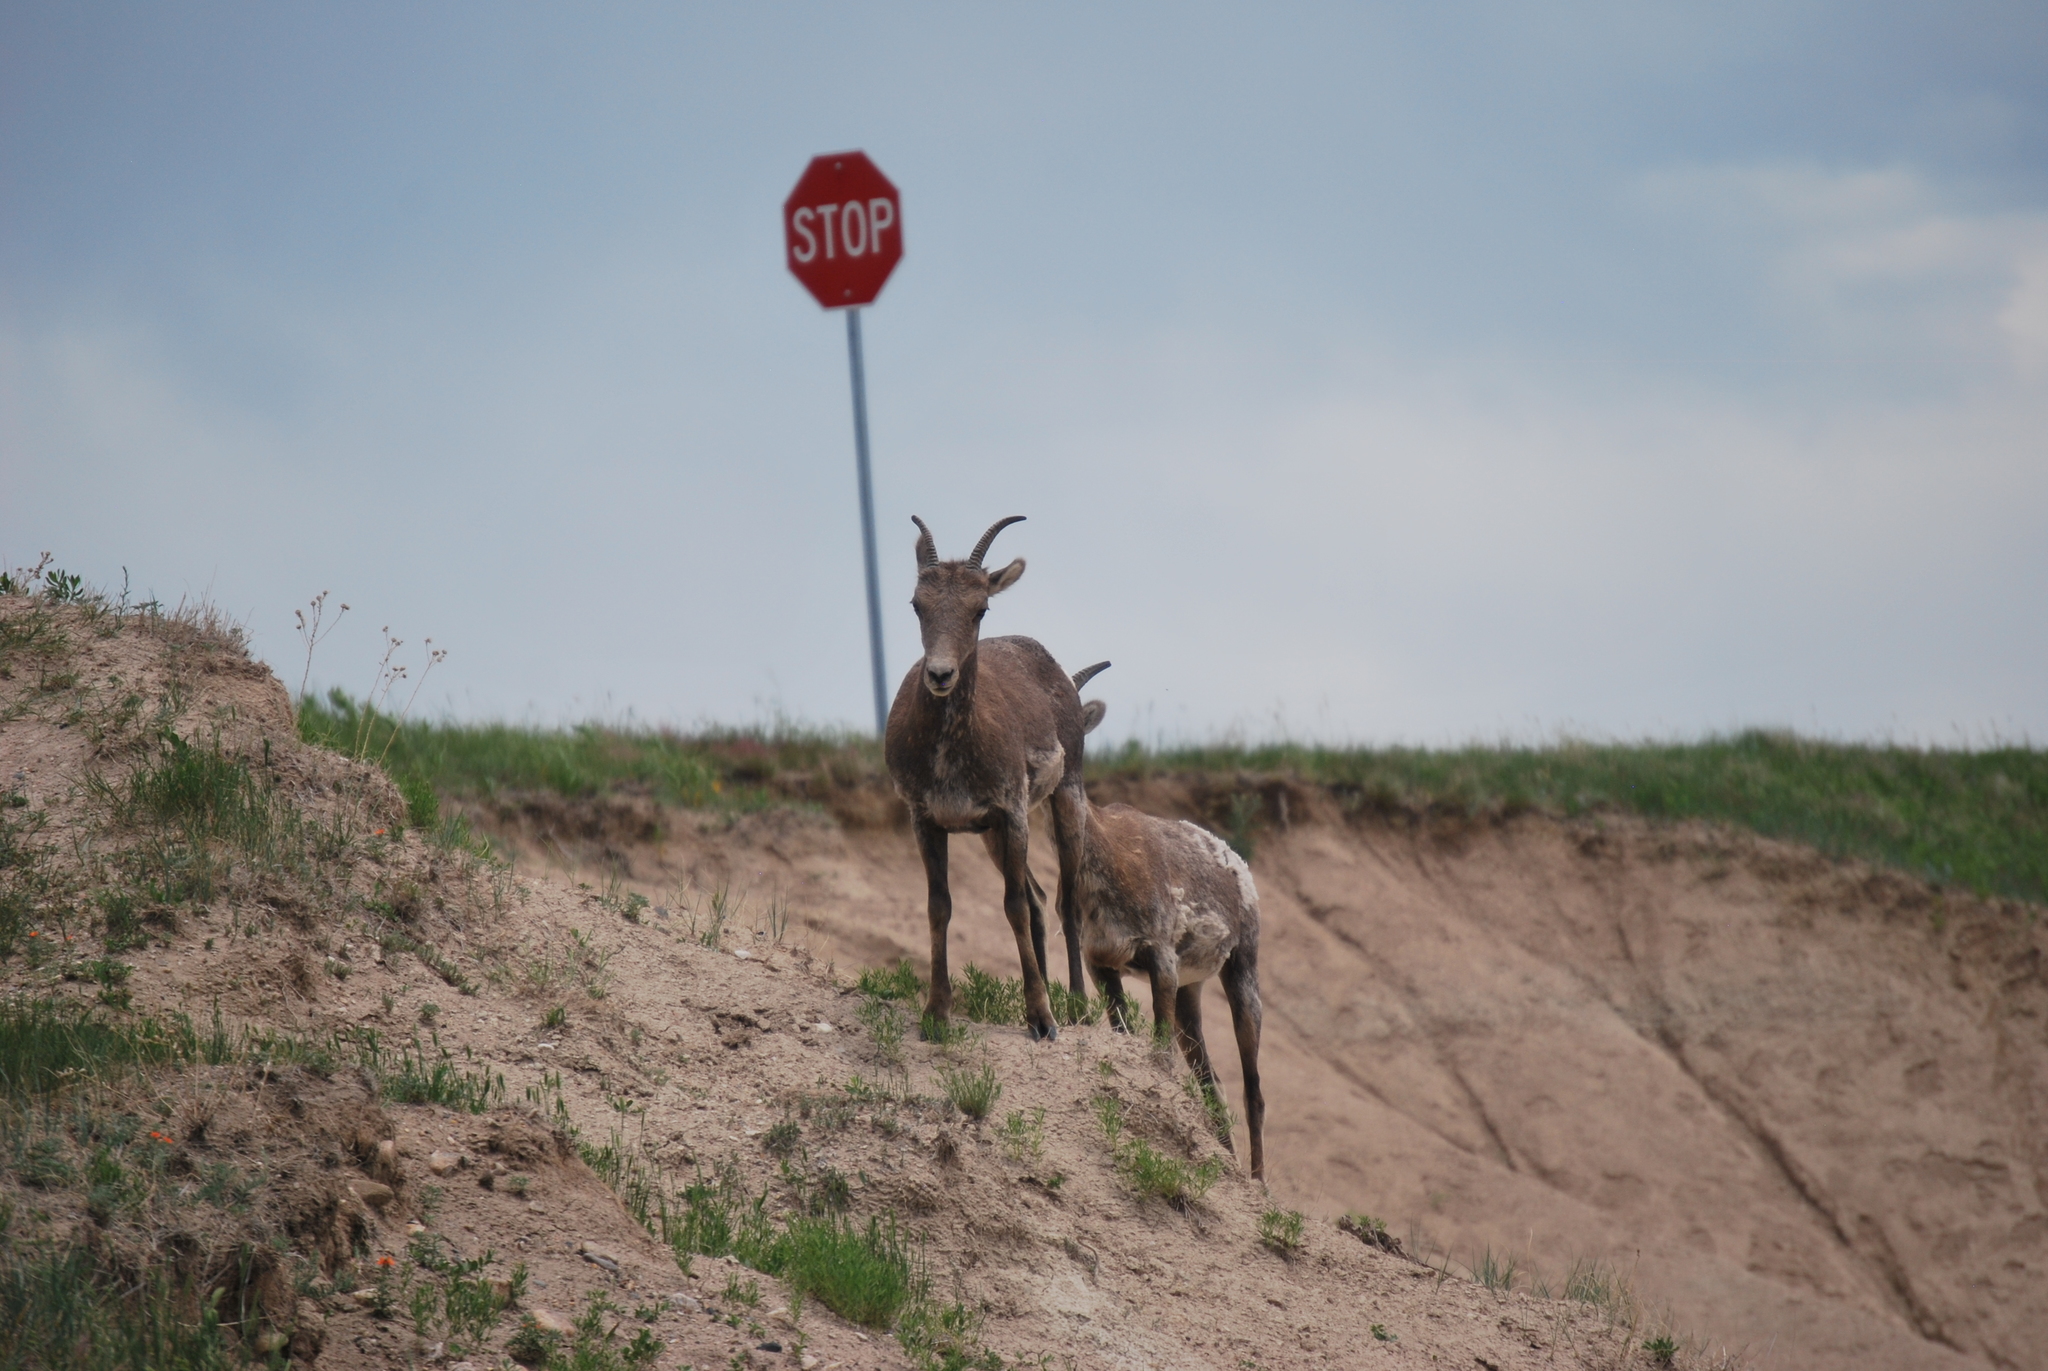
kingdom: Animalia
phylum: Chordata
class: Mammalia
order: Artiodactyla
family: Bovidae
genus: Ovis
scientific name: Ovis canadensis
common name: Bighorn sheep
